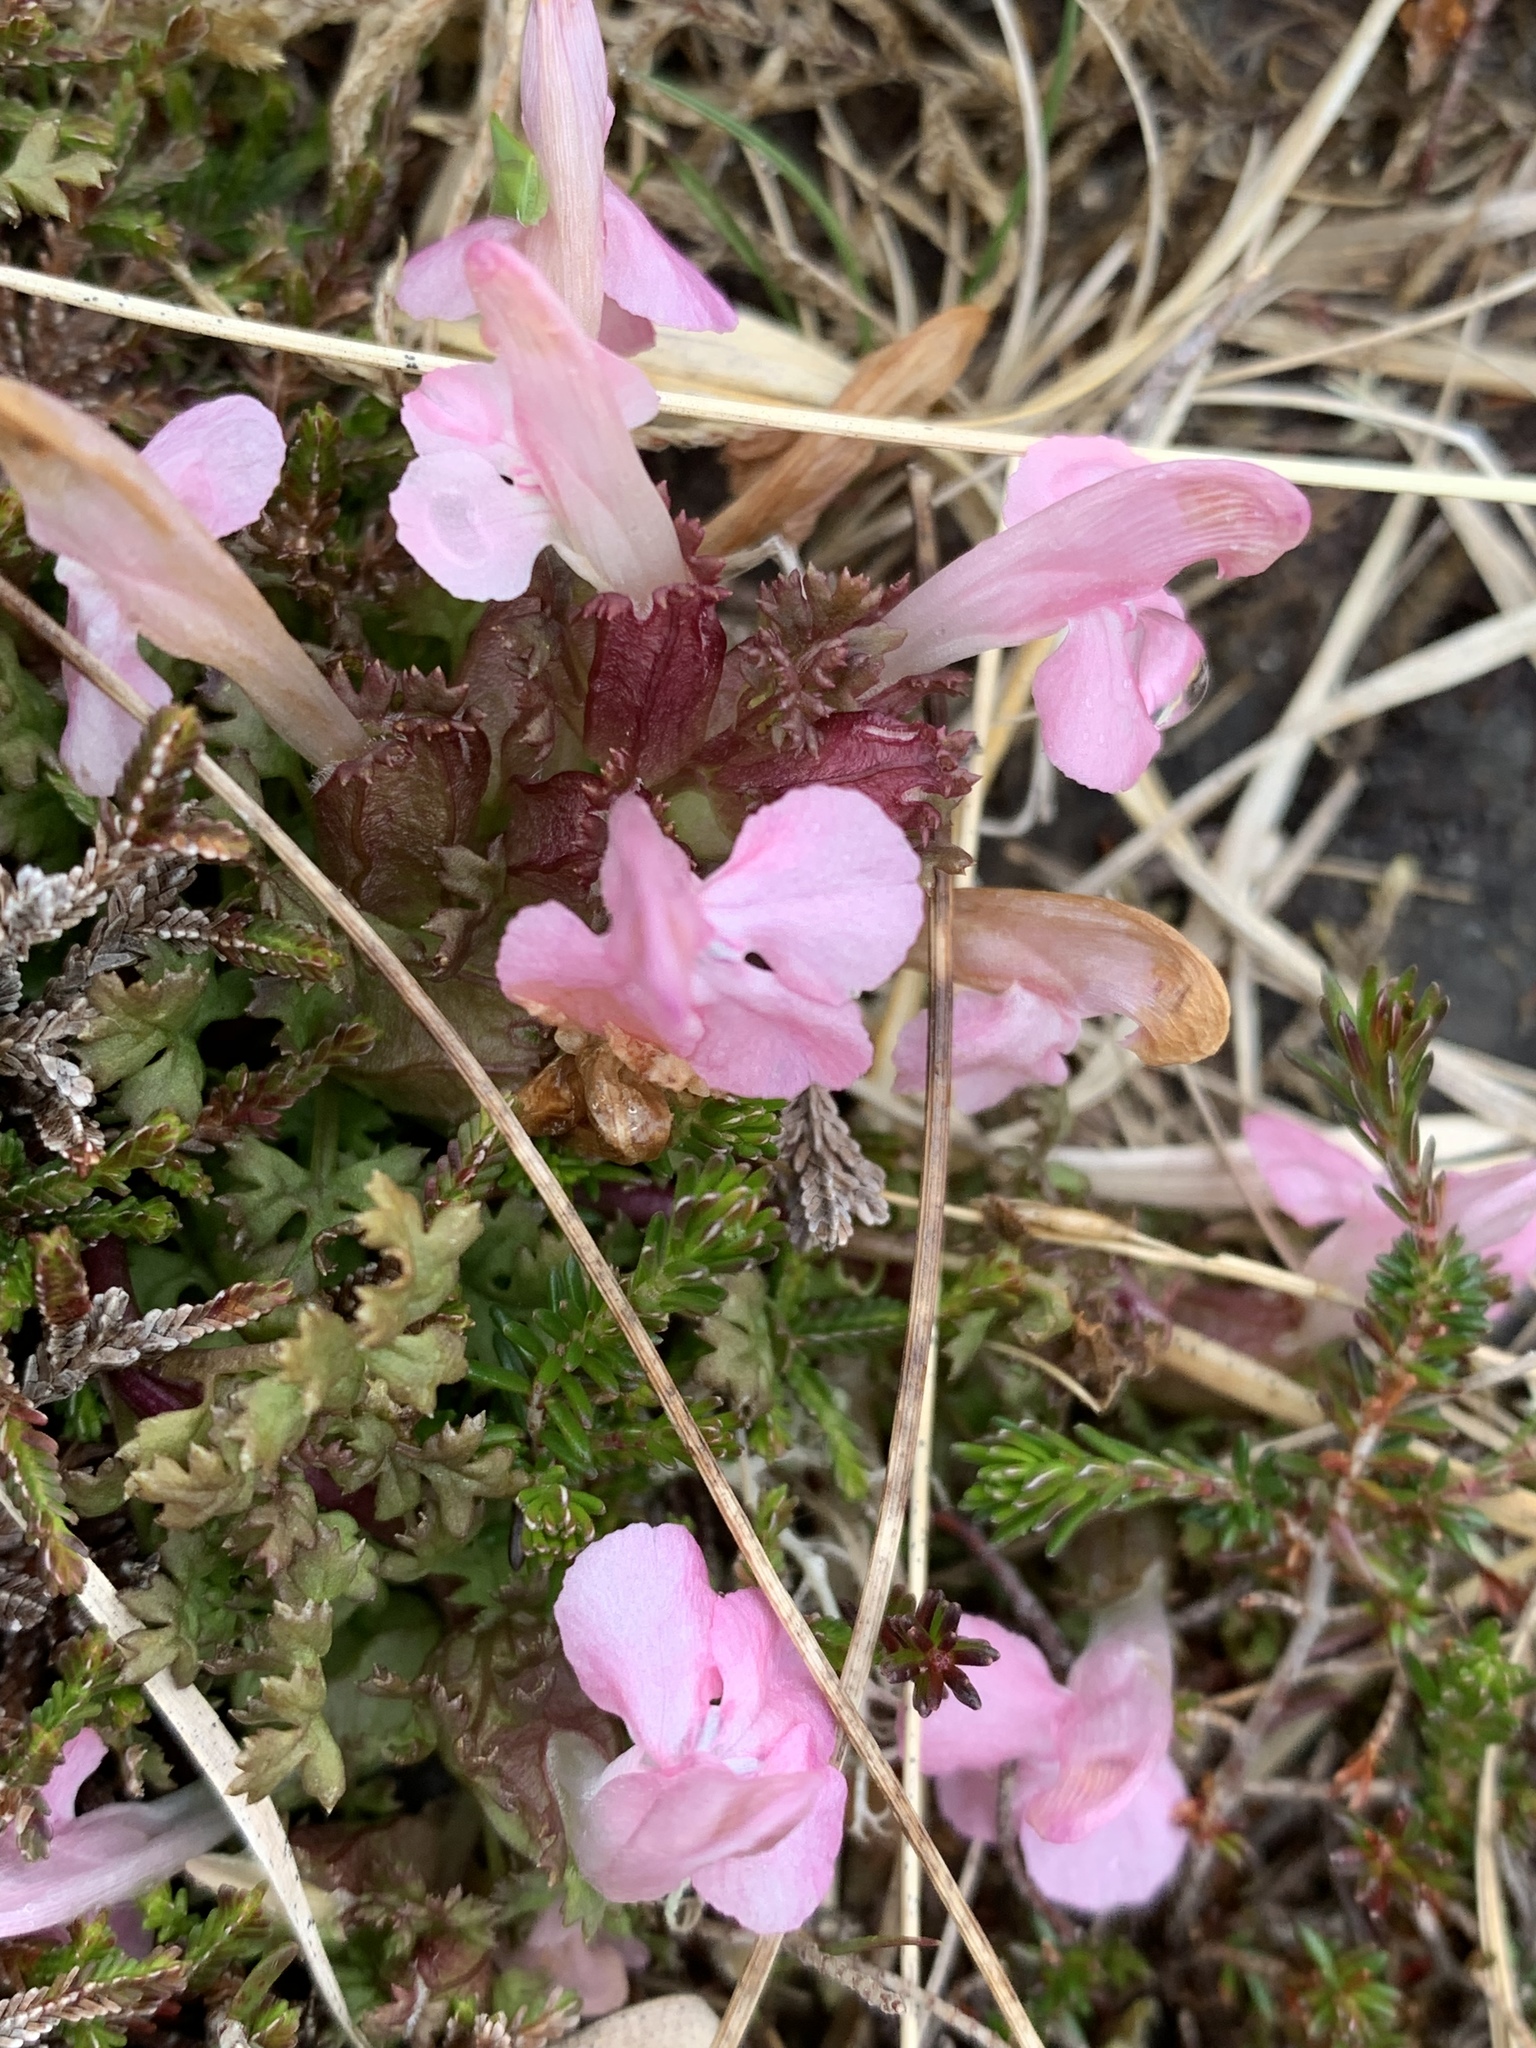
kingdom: Plantae
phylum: Tracheophyta
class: Magnoliopsida
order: Lamiales
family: Orobanchaceae
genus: Pedicularis
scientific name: Pedicularis sylvatica
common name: Lousewort
